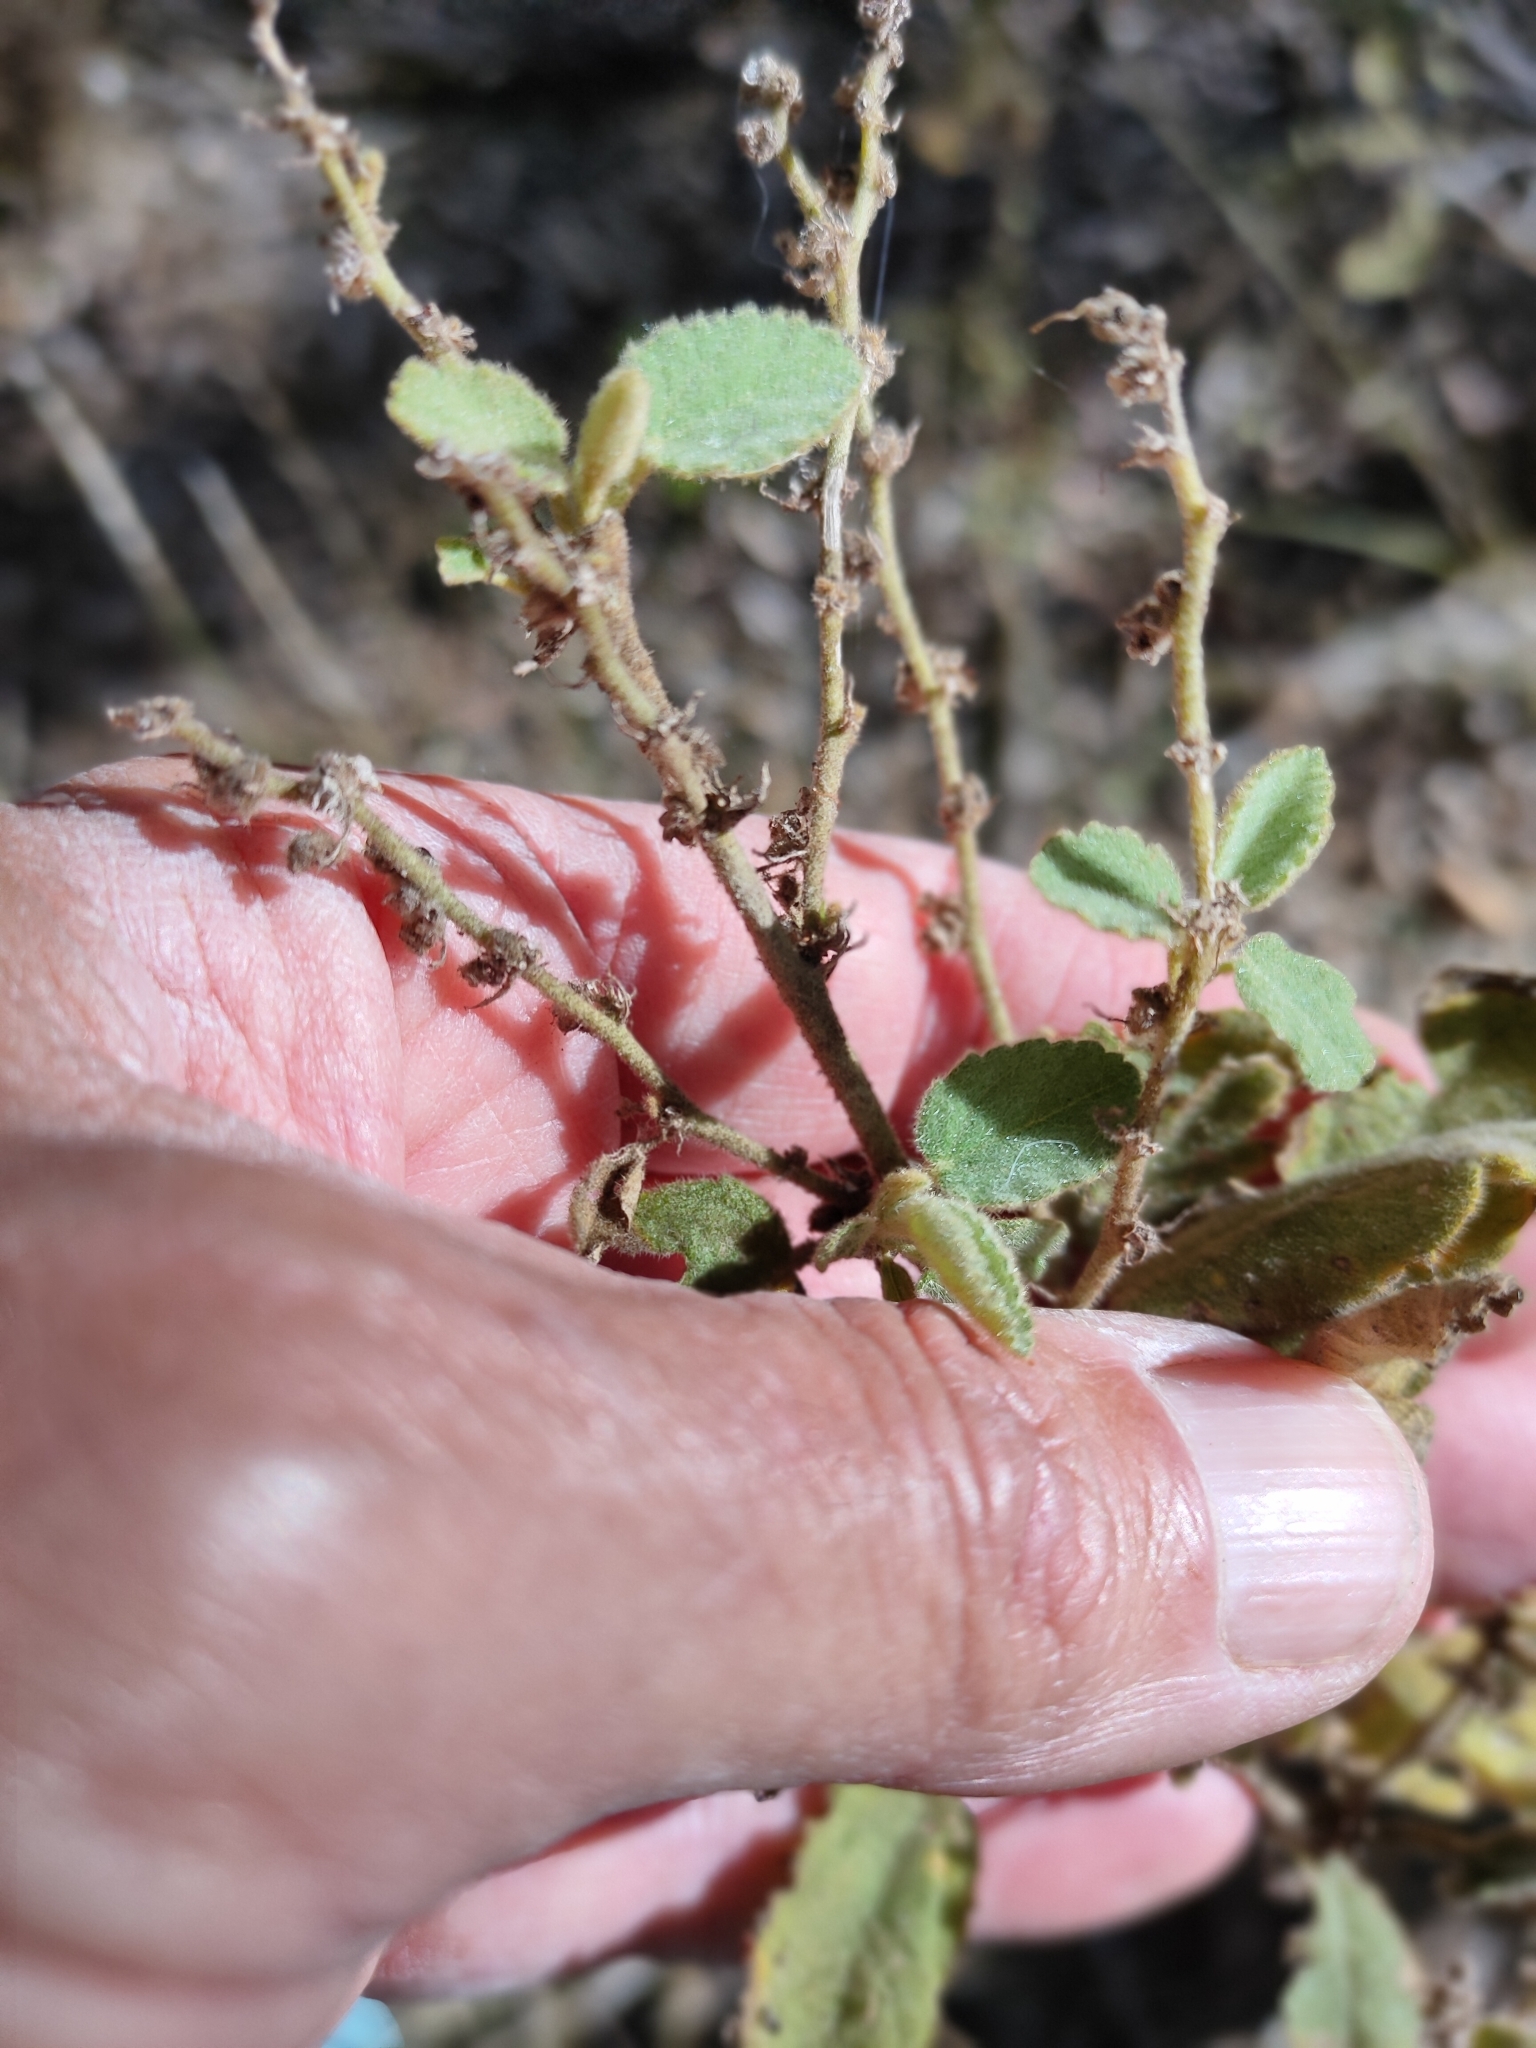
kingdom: Plantae
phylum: Tracheophyta
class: Magnoliopsida
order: Malvales
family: Malvaceae
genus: Sida
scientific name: Sida hackettiana
